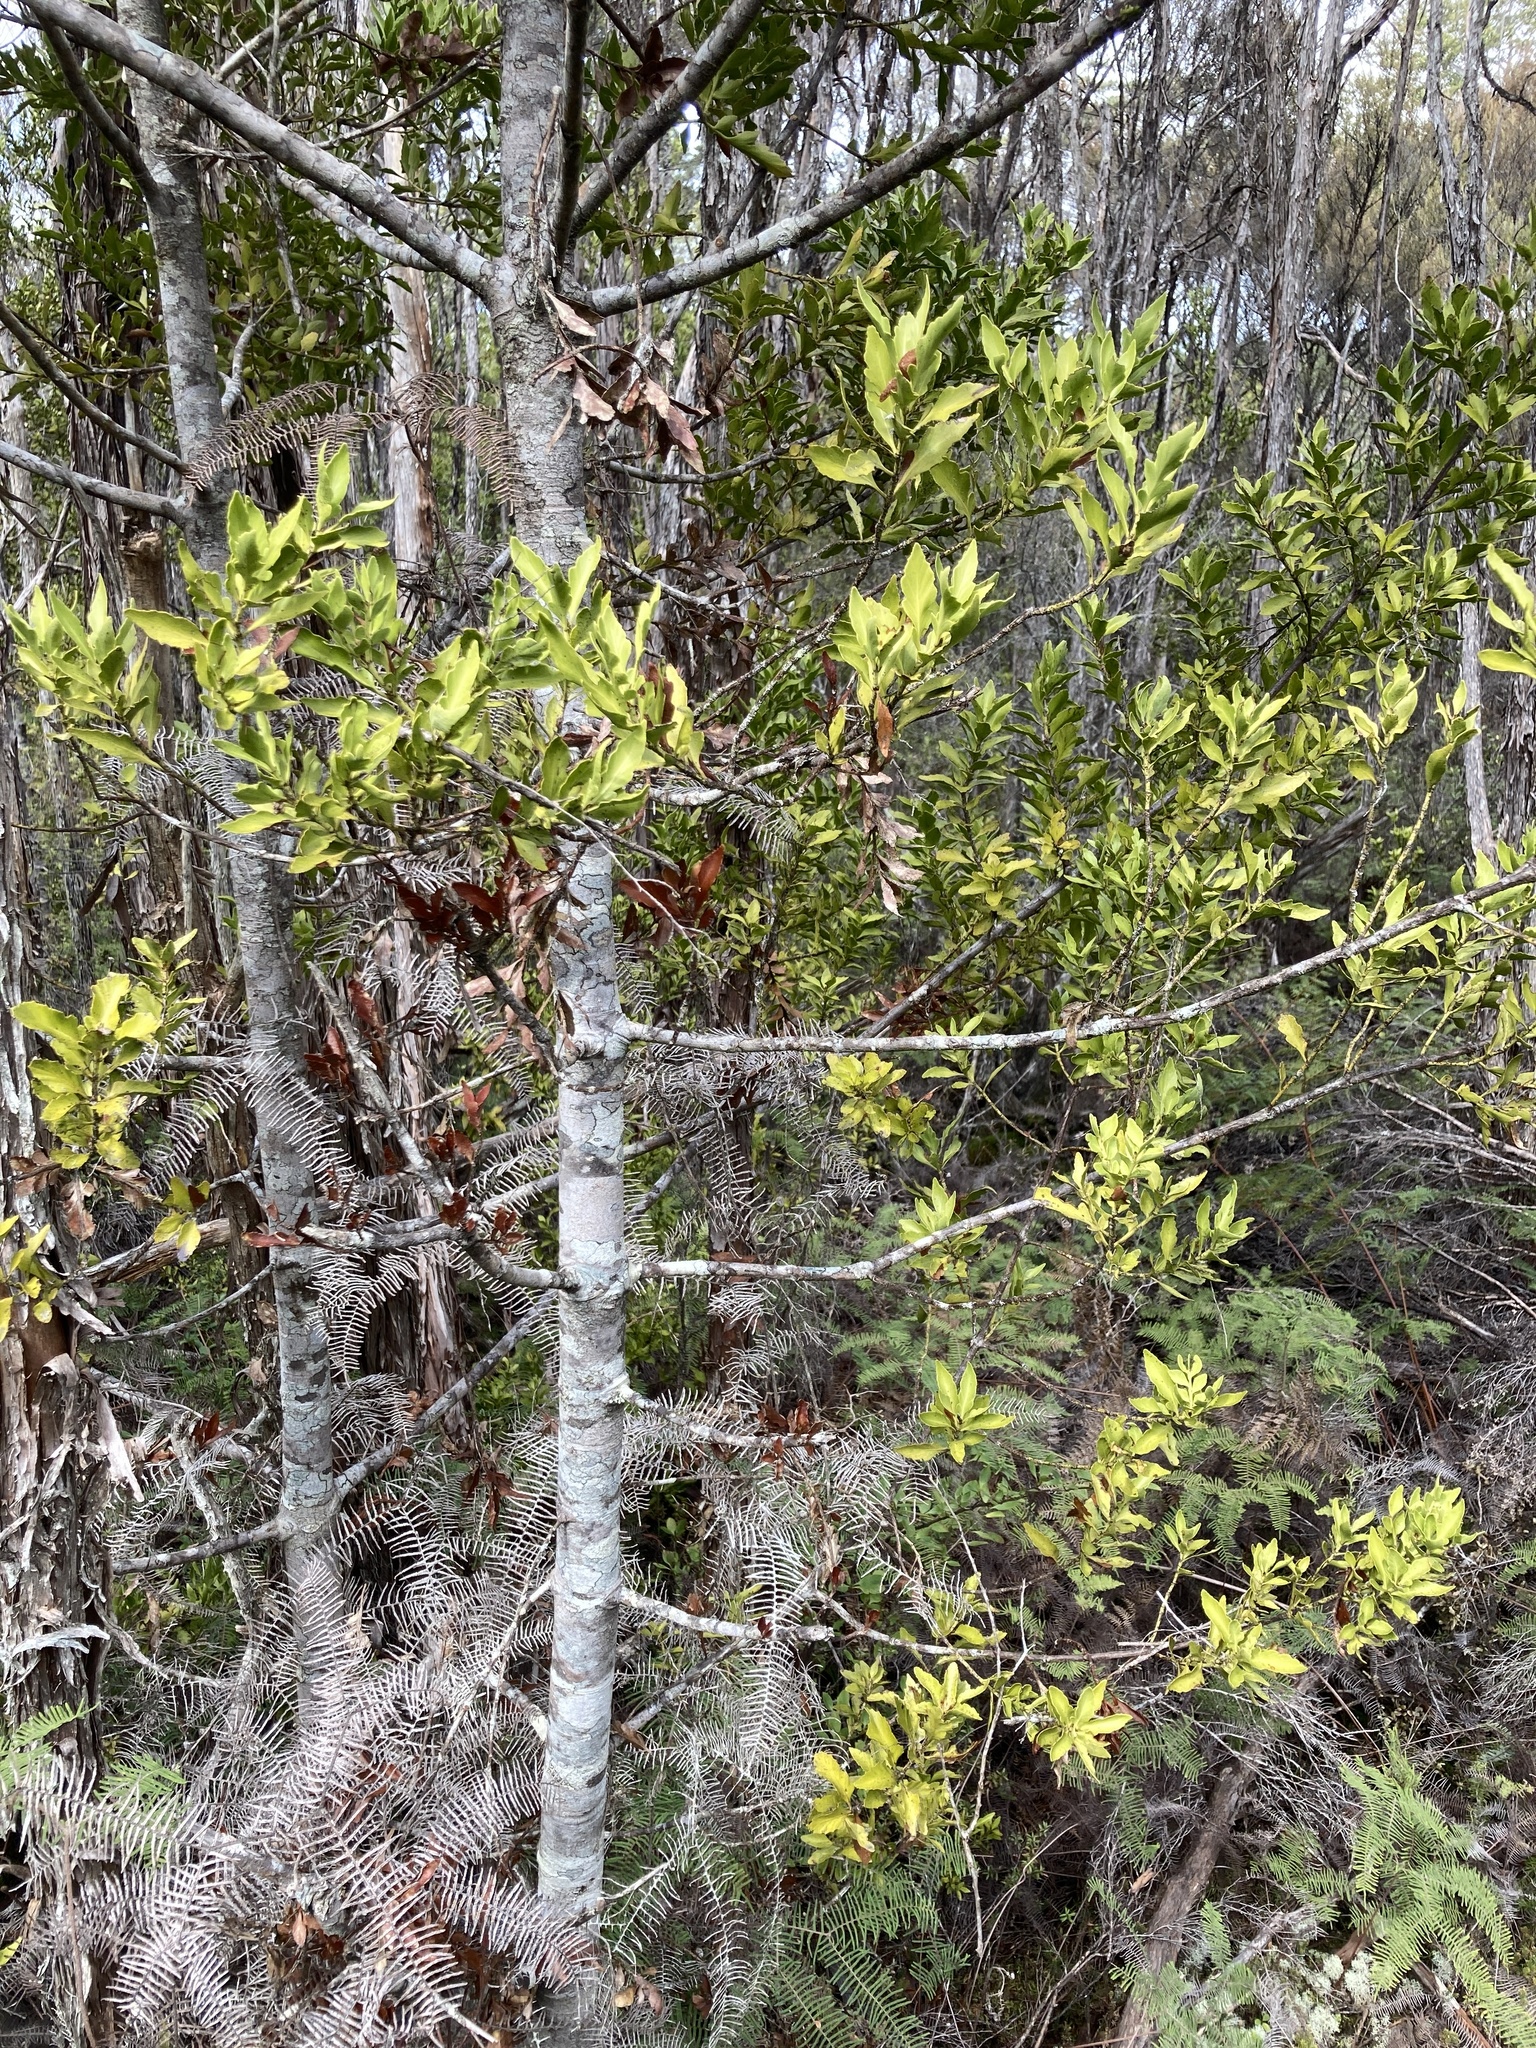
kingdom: Plantae
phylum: Tracheophyta
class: Pinopsida
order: Pinales
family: Phyllocladaceae
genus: Phyllocladus
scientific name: Phyllocladus trichomanoides
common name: Celery pine
